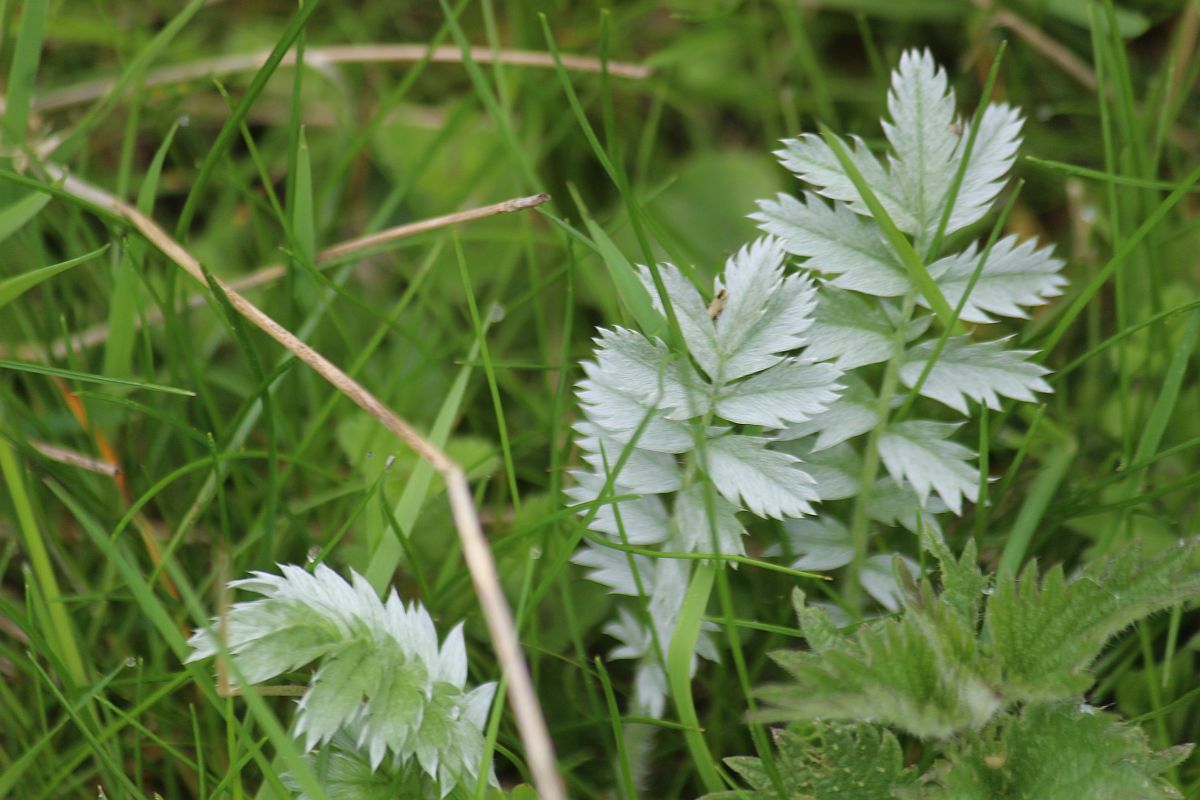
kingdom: Plantae
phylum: Tracheophyta
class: Magnoliopsida
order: Rosales
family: Rosaceae
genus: Argentina
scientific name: Argentina anserina
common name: Common silverweed
